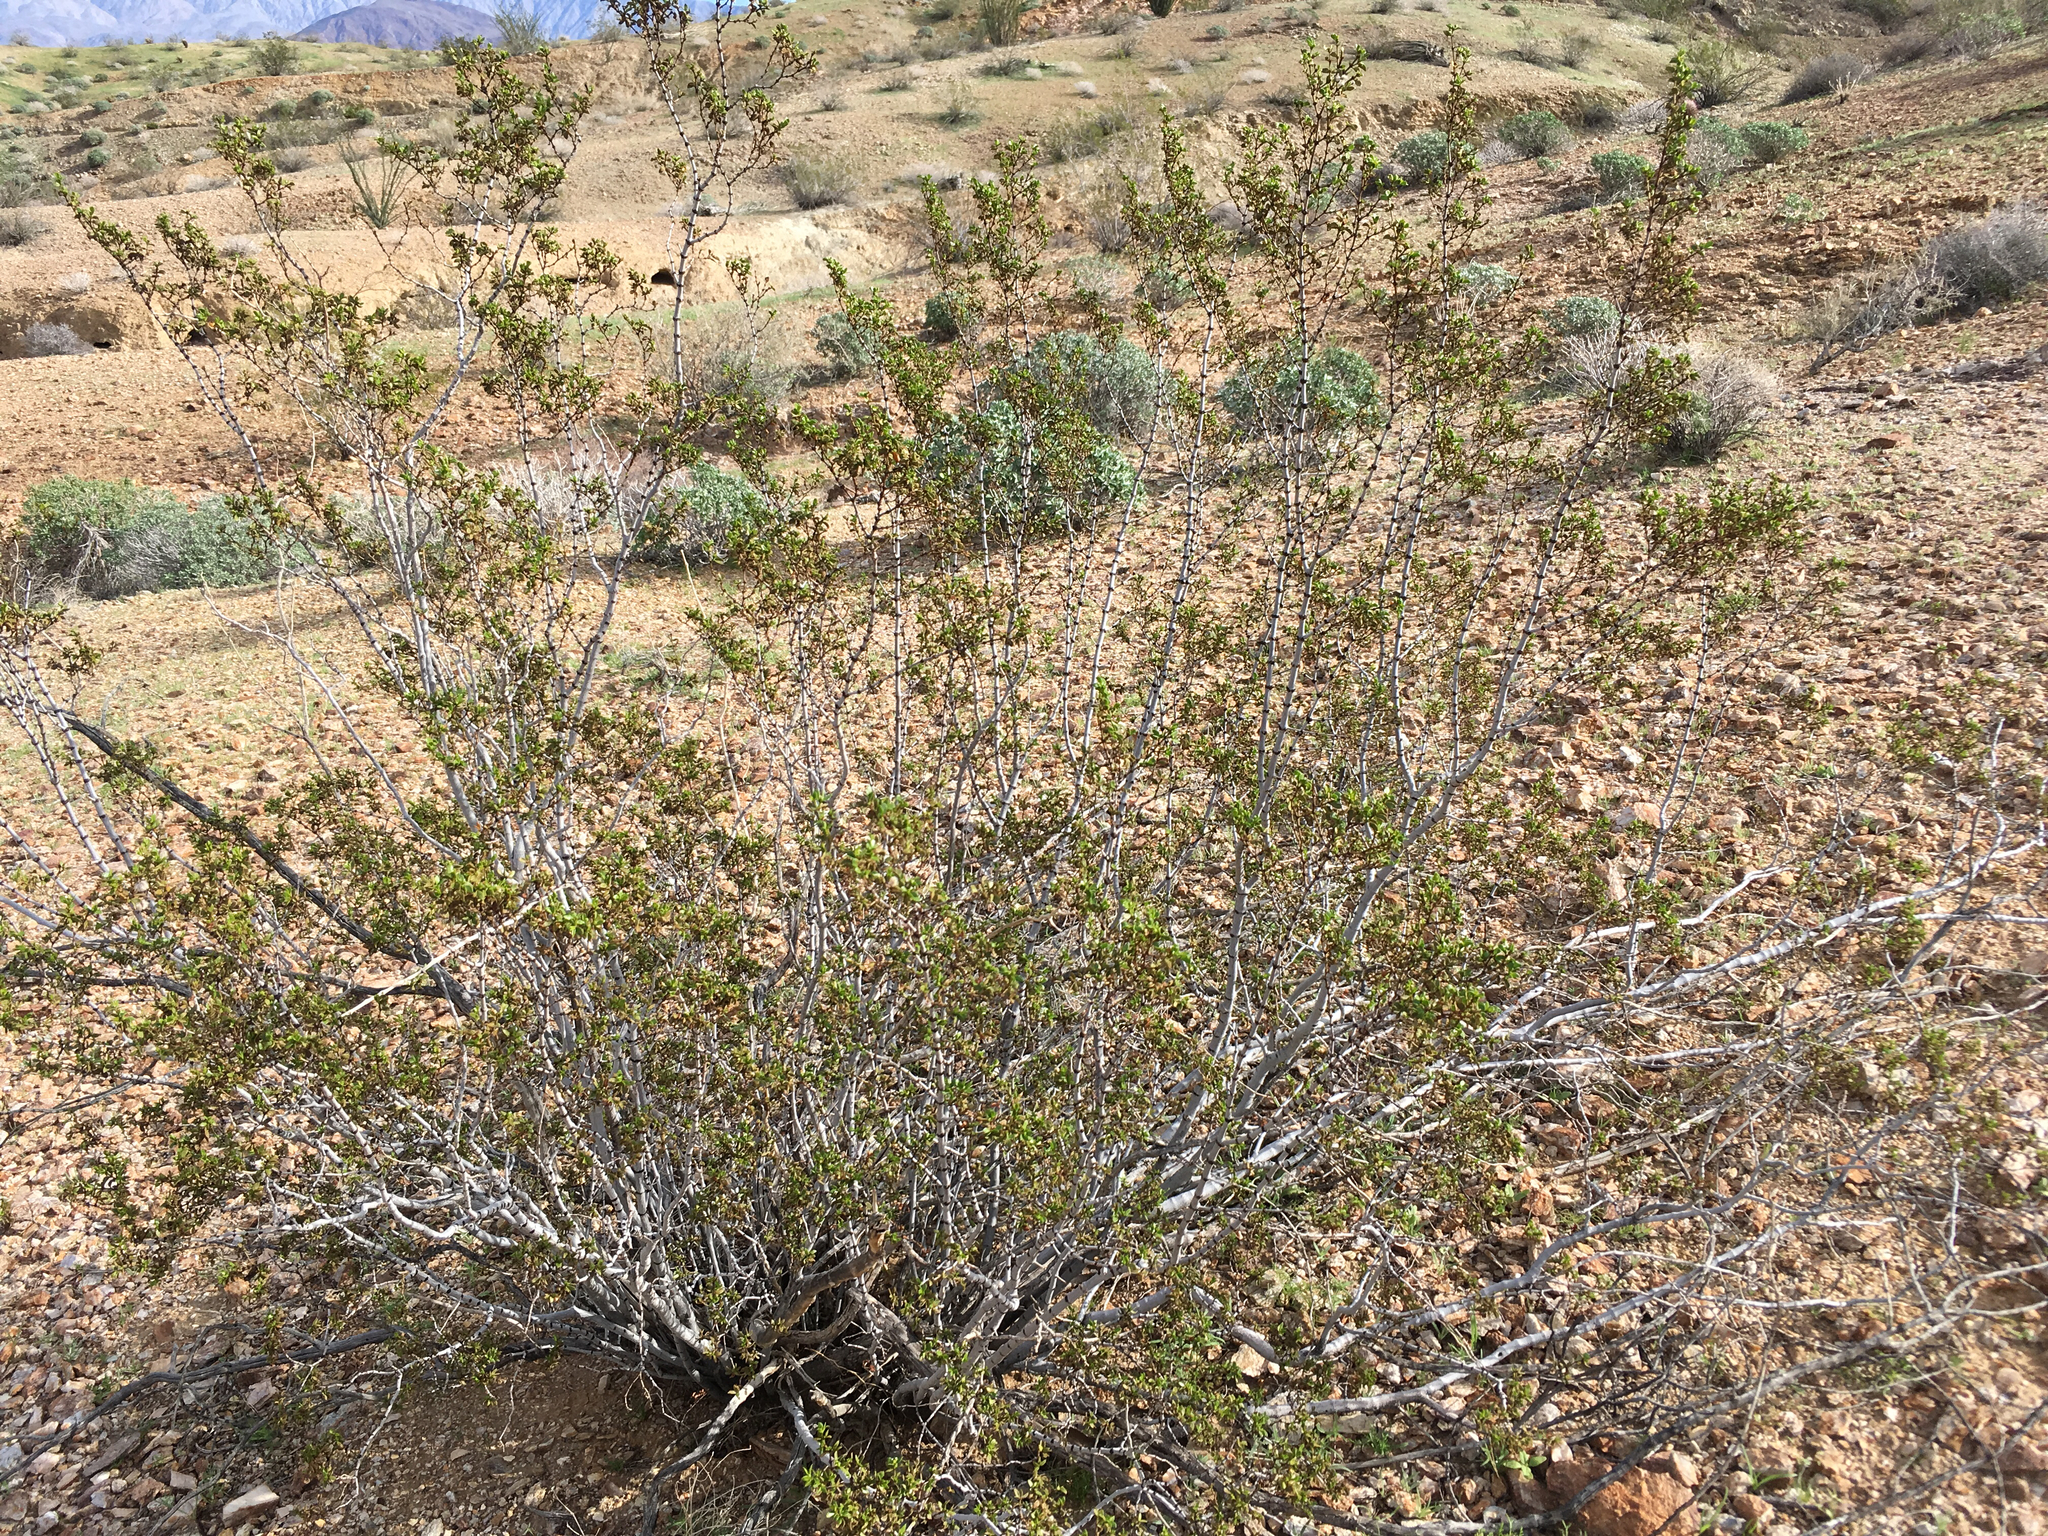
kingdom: Plantae
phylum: Tracheophyta
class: Magnoliopsida
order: Zygophyllales
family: Zygophyllaceae
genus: Larrea
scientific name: Larrea tridentata
